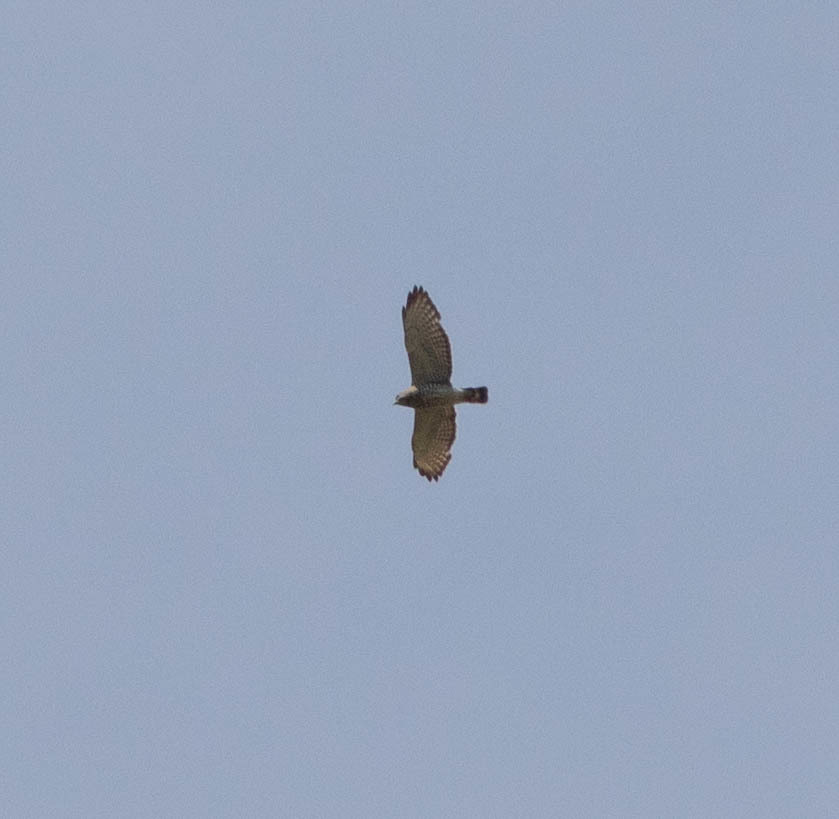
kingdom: Animalia
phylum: Chordata
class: Aves
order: Accipitriformes
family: Accipitridae
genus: Buteo
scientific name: Buteo platypterus
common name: Broad-winged hawk
